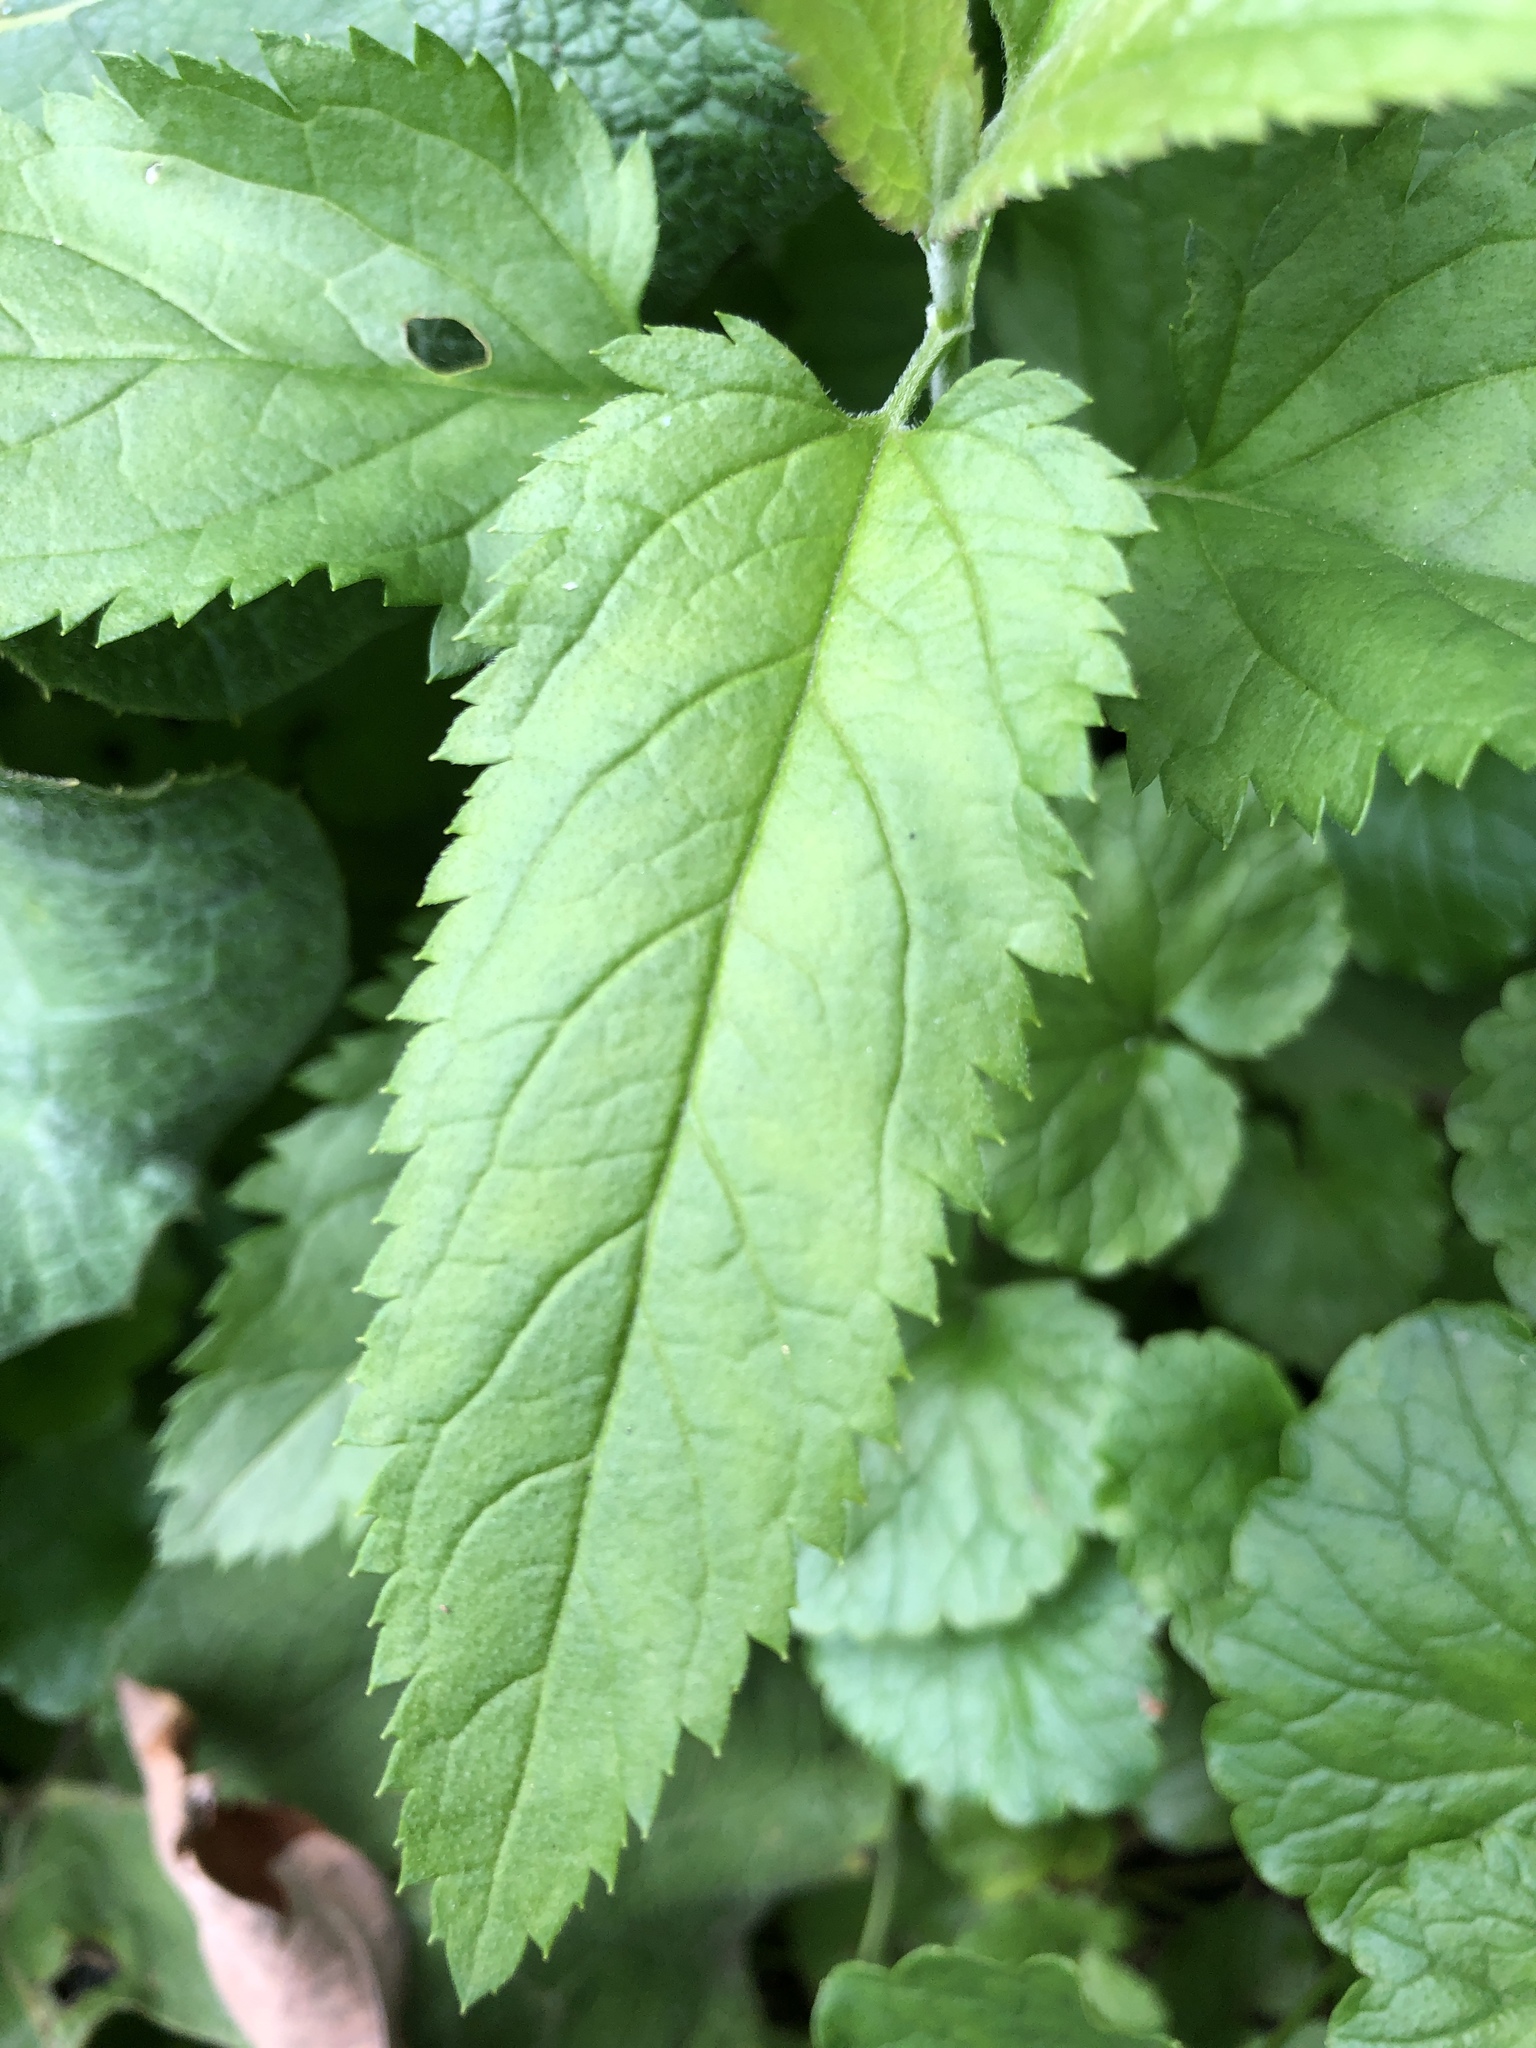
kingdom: Plantae
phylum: Tracheophyta
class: Magnoliopsida
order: Lamiales
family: Plantaginaceae
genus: Veronica
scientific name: Veronica longifolia
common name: Garden speedwell
